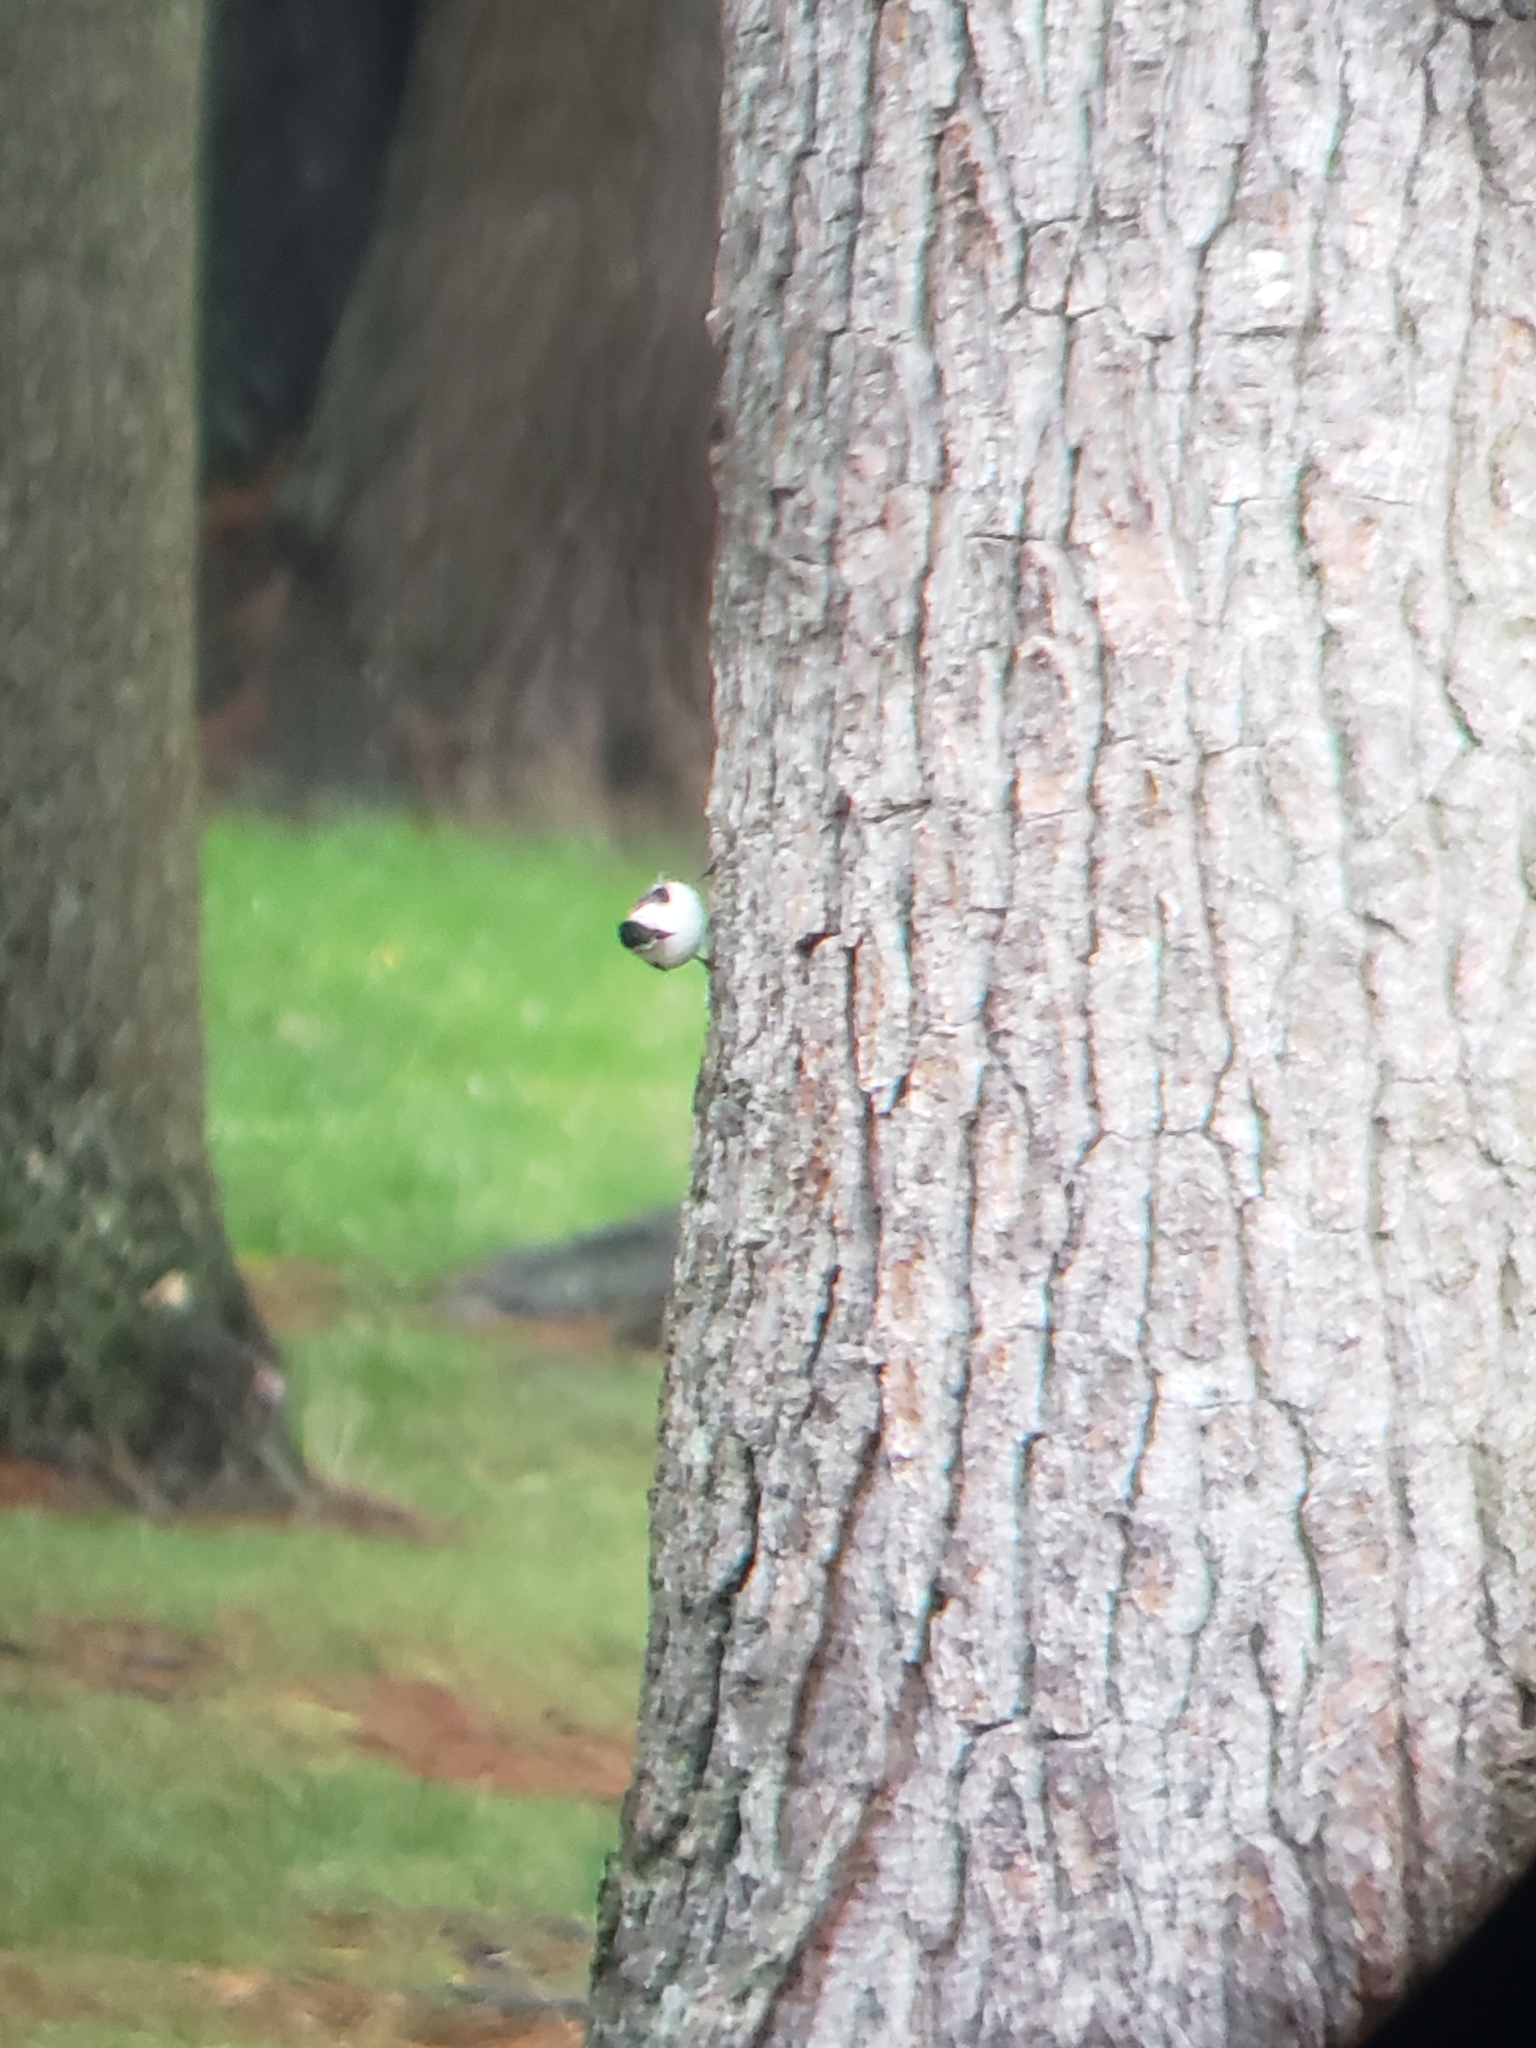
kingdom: Animalia
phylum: Chordata
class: Aves
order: Passeriformes
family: Sittidae
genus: Sitta
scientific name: Sitta carolinensis
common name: White-breasted nuthatch
